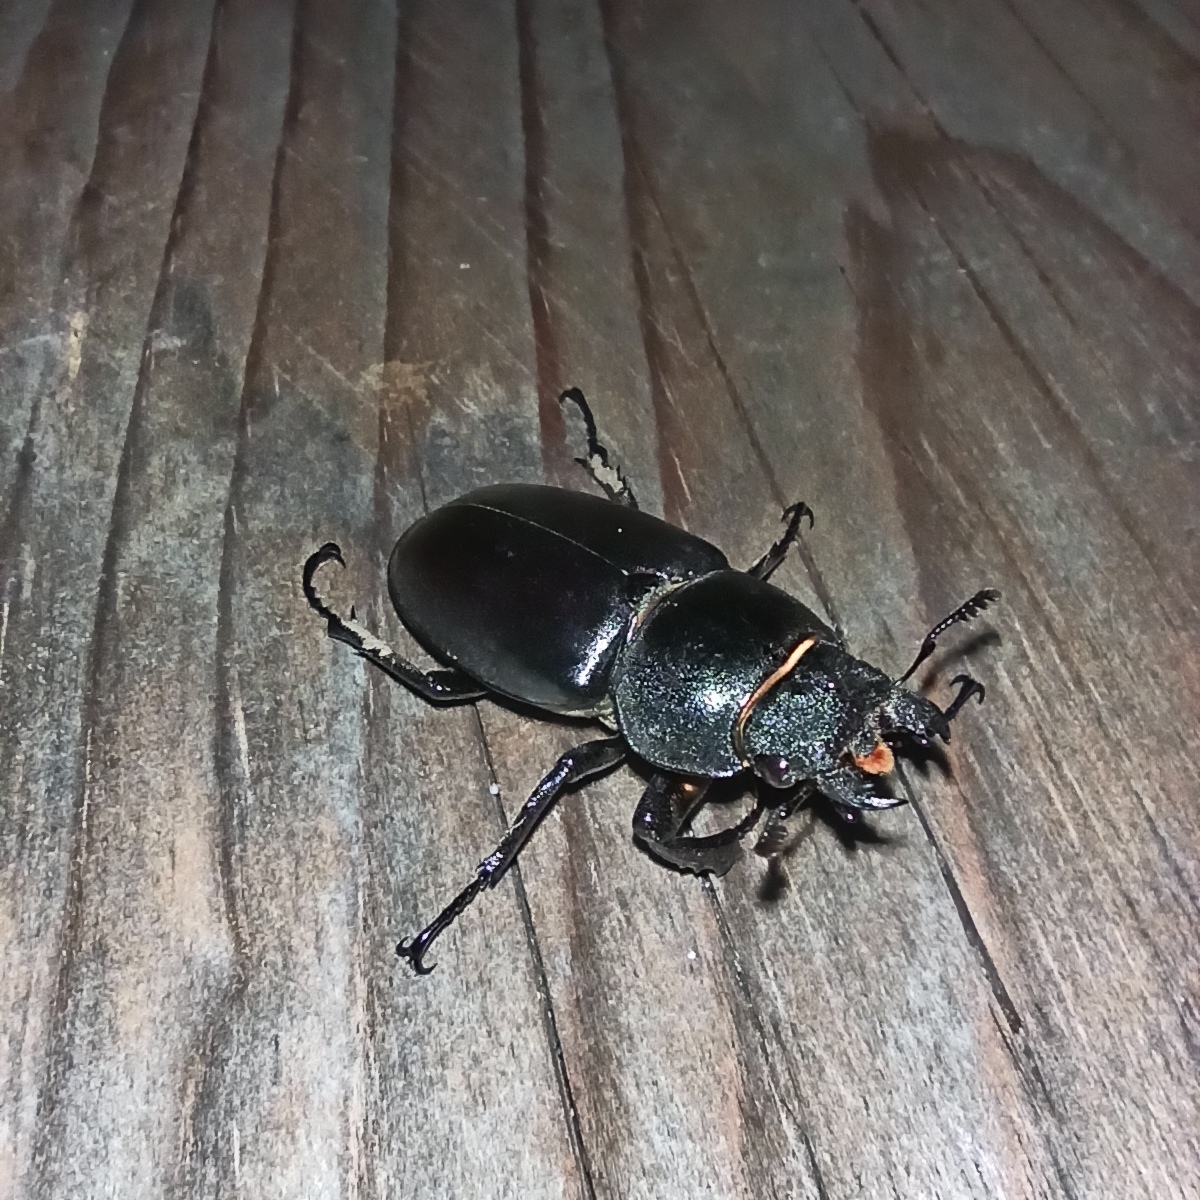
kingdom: Animalia
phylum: Arthropoda
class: Insecta
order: Coleoptera
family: Lucanidae
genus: Lucanus
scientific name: Lucanus cervus
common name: Stag beetle
